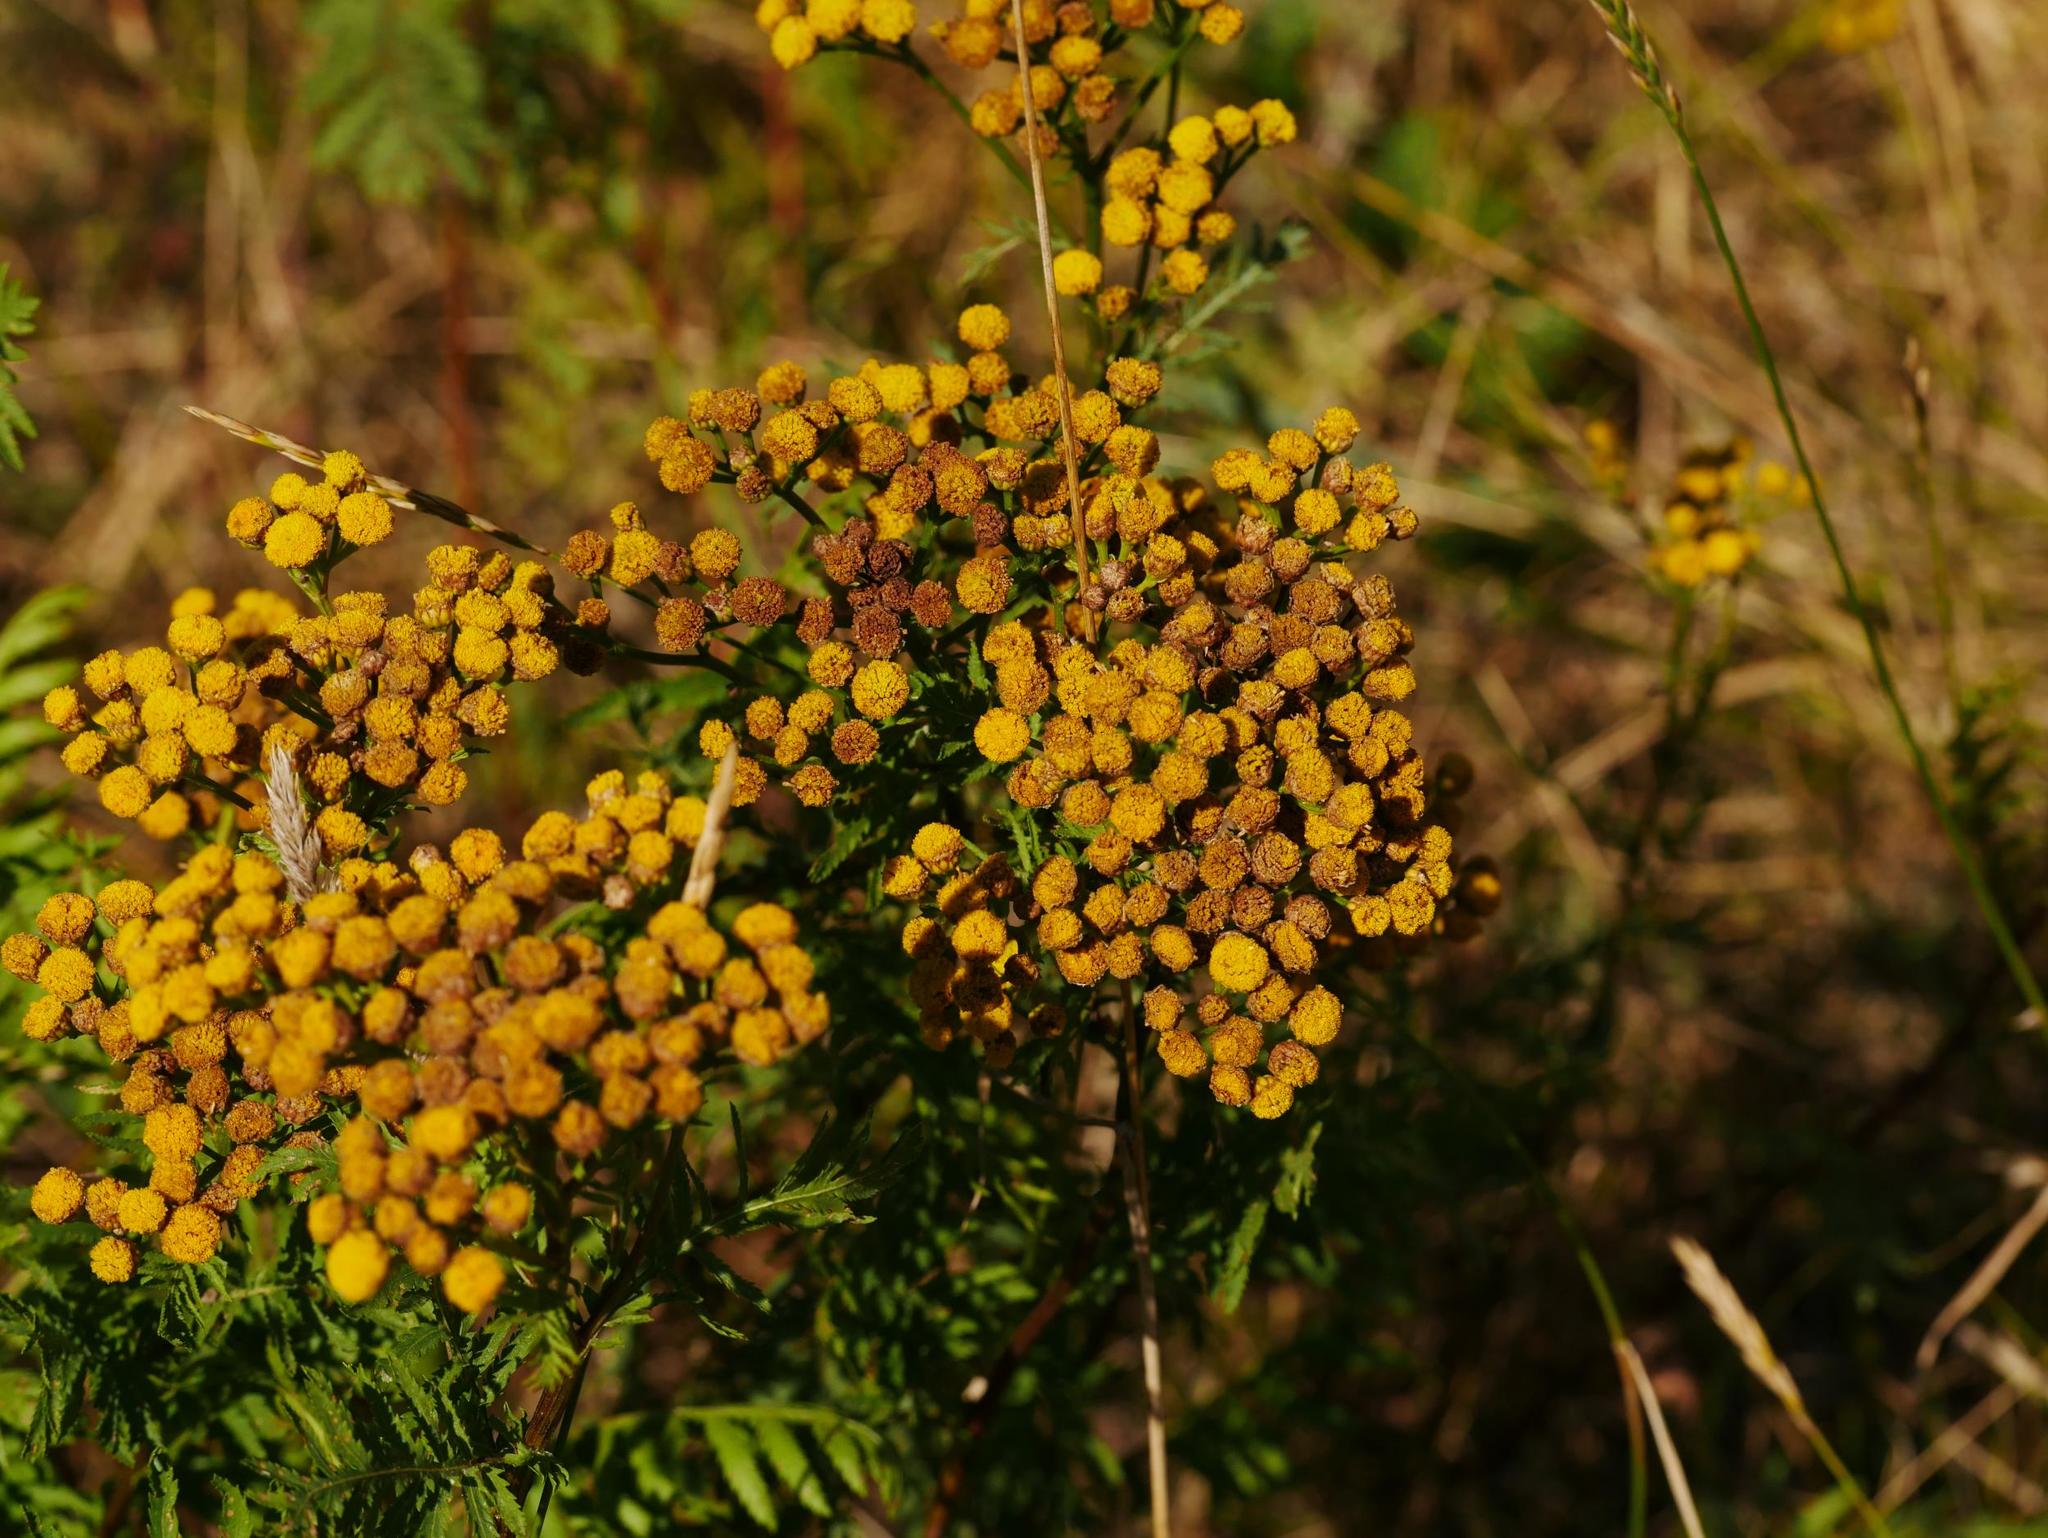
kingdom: Plantae
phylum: Tracheophyta
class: Magnoliopsida
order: Asterales
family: Asteraceae
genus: Tanacetum
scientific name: Tanacetum vulgare
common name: Common tansy
